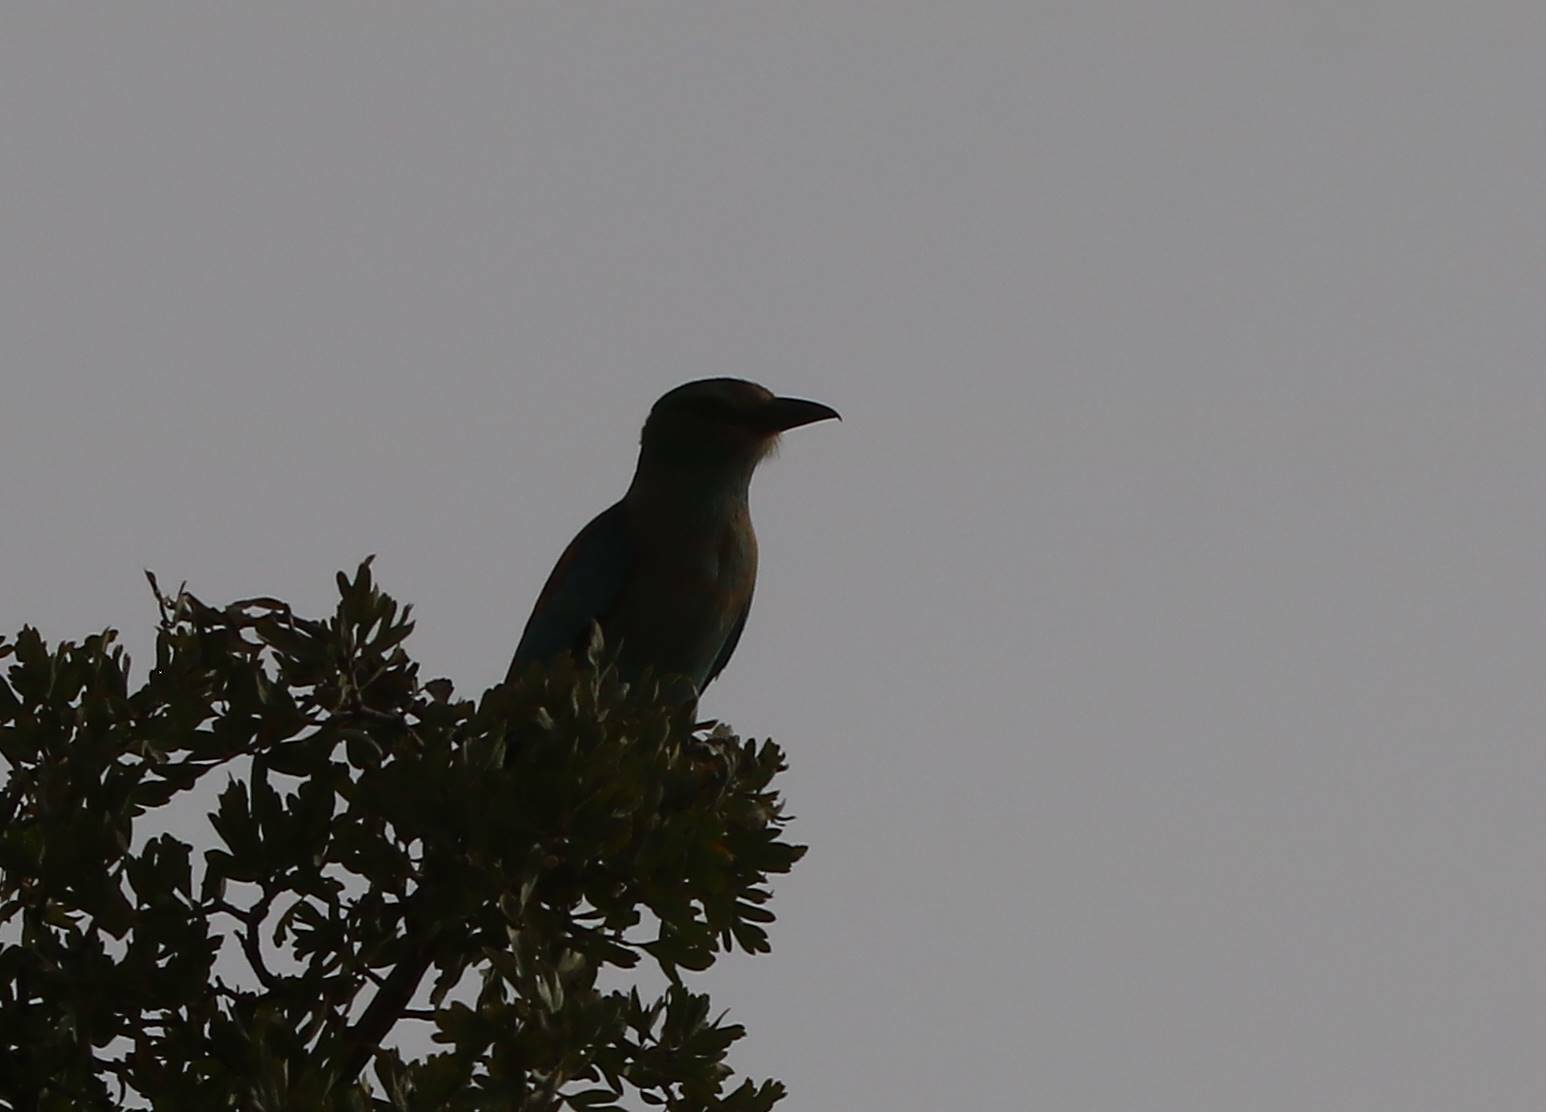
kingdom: Animalia
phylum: Chordata
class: Aves
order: Coraciiformes
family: Coraciidae
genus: Coracias
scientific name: Coracias garrulus
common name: European roller
